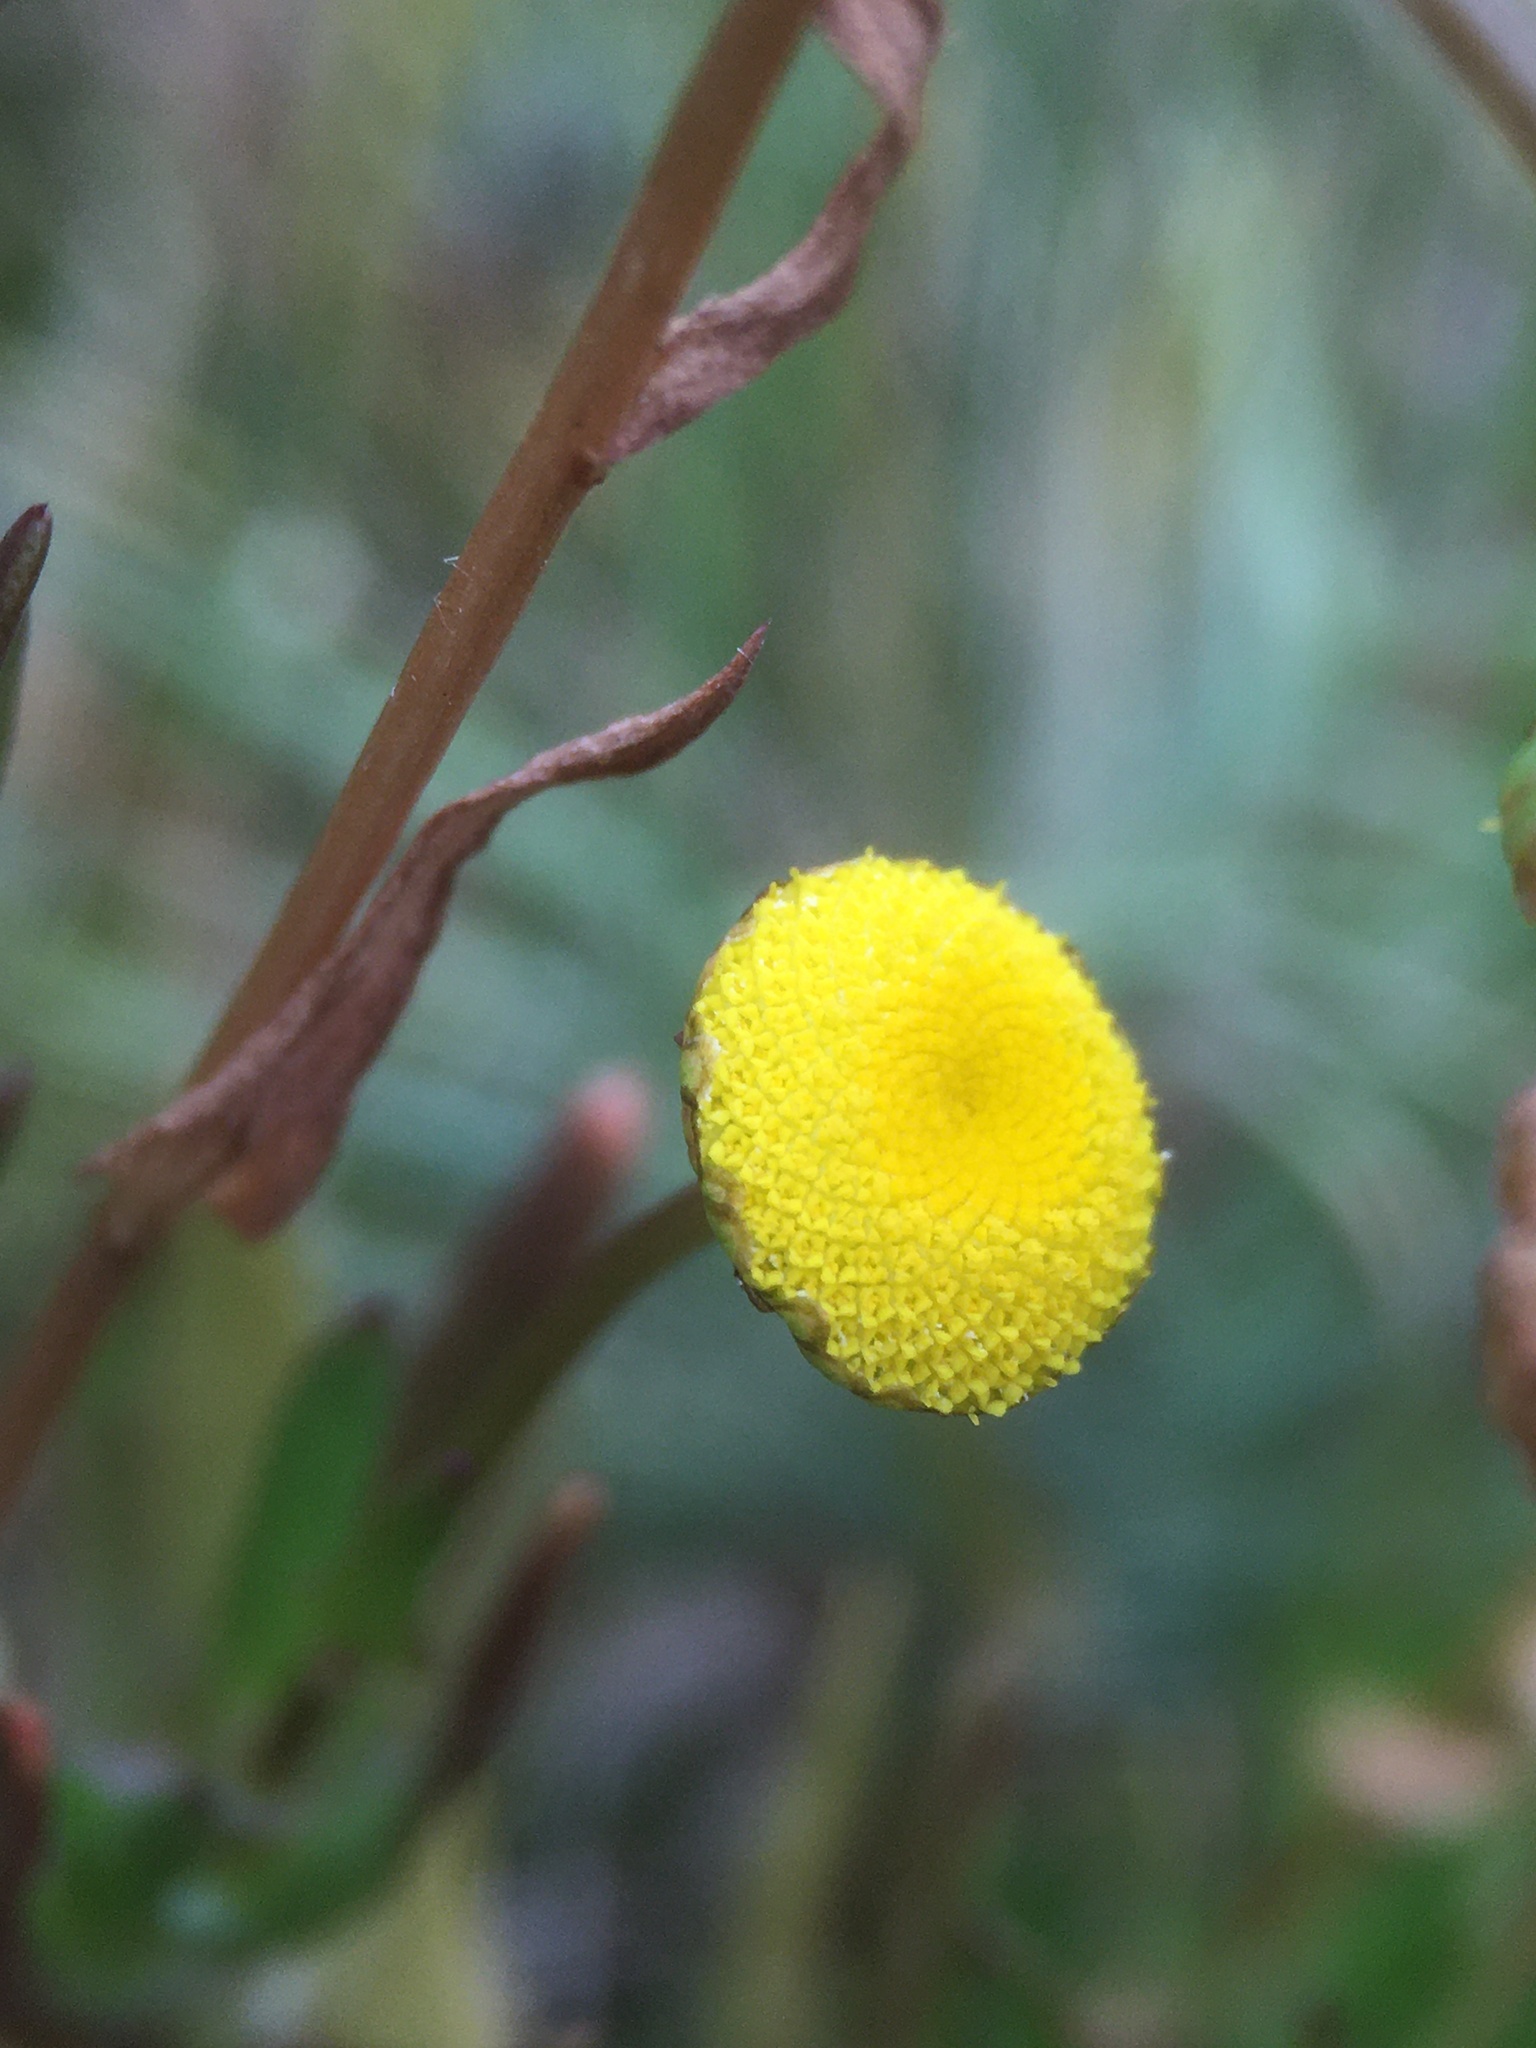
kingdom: Plantae
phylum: Tracheophyta
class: Magnoliopsida
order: Asterales
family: Asteraceae
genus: Cotula
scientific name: Cotula coronopifolia
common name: Buttonweed
